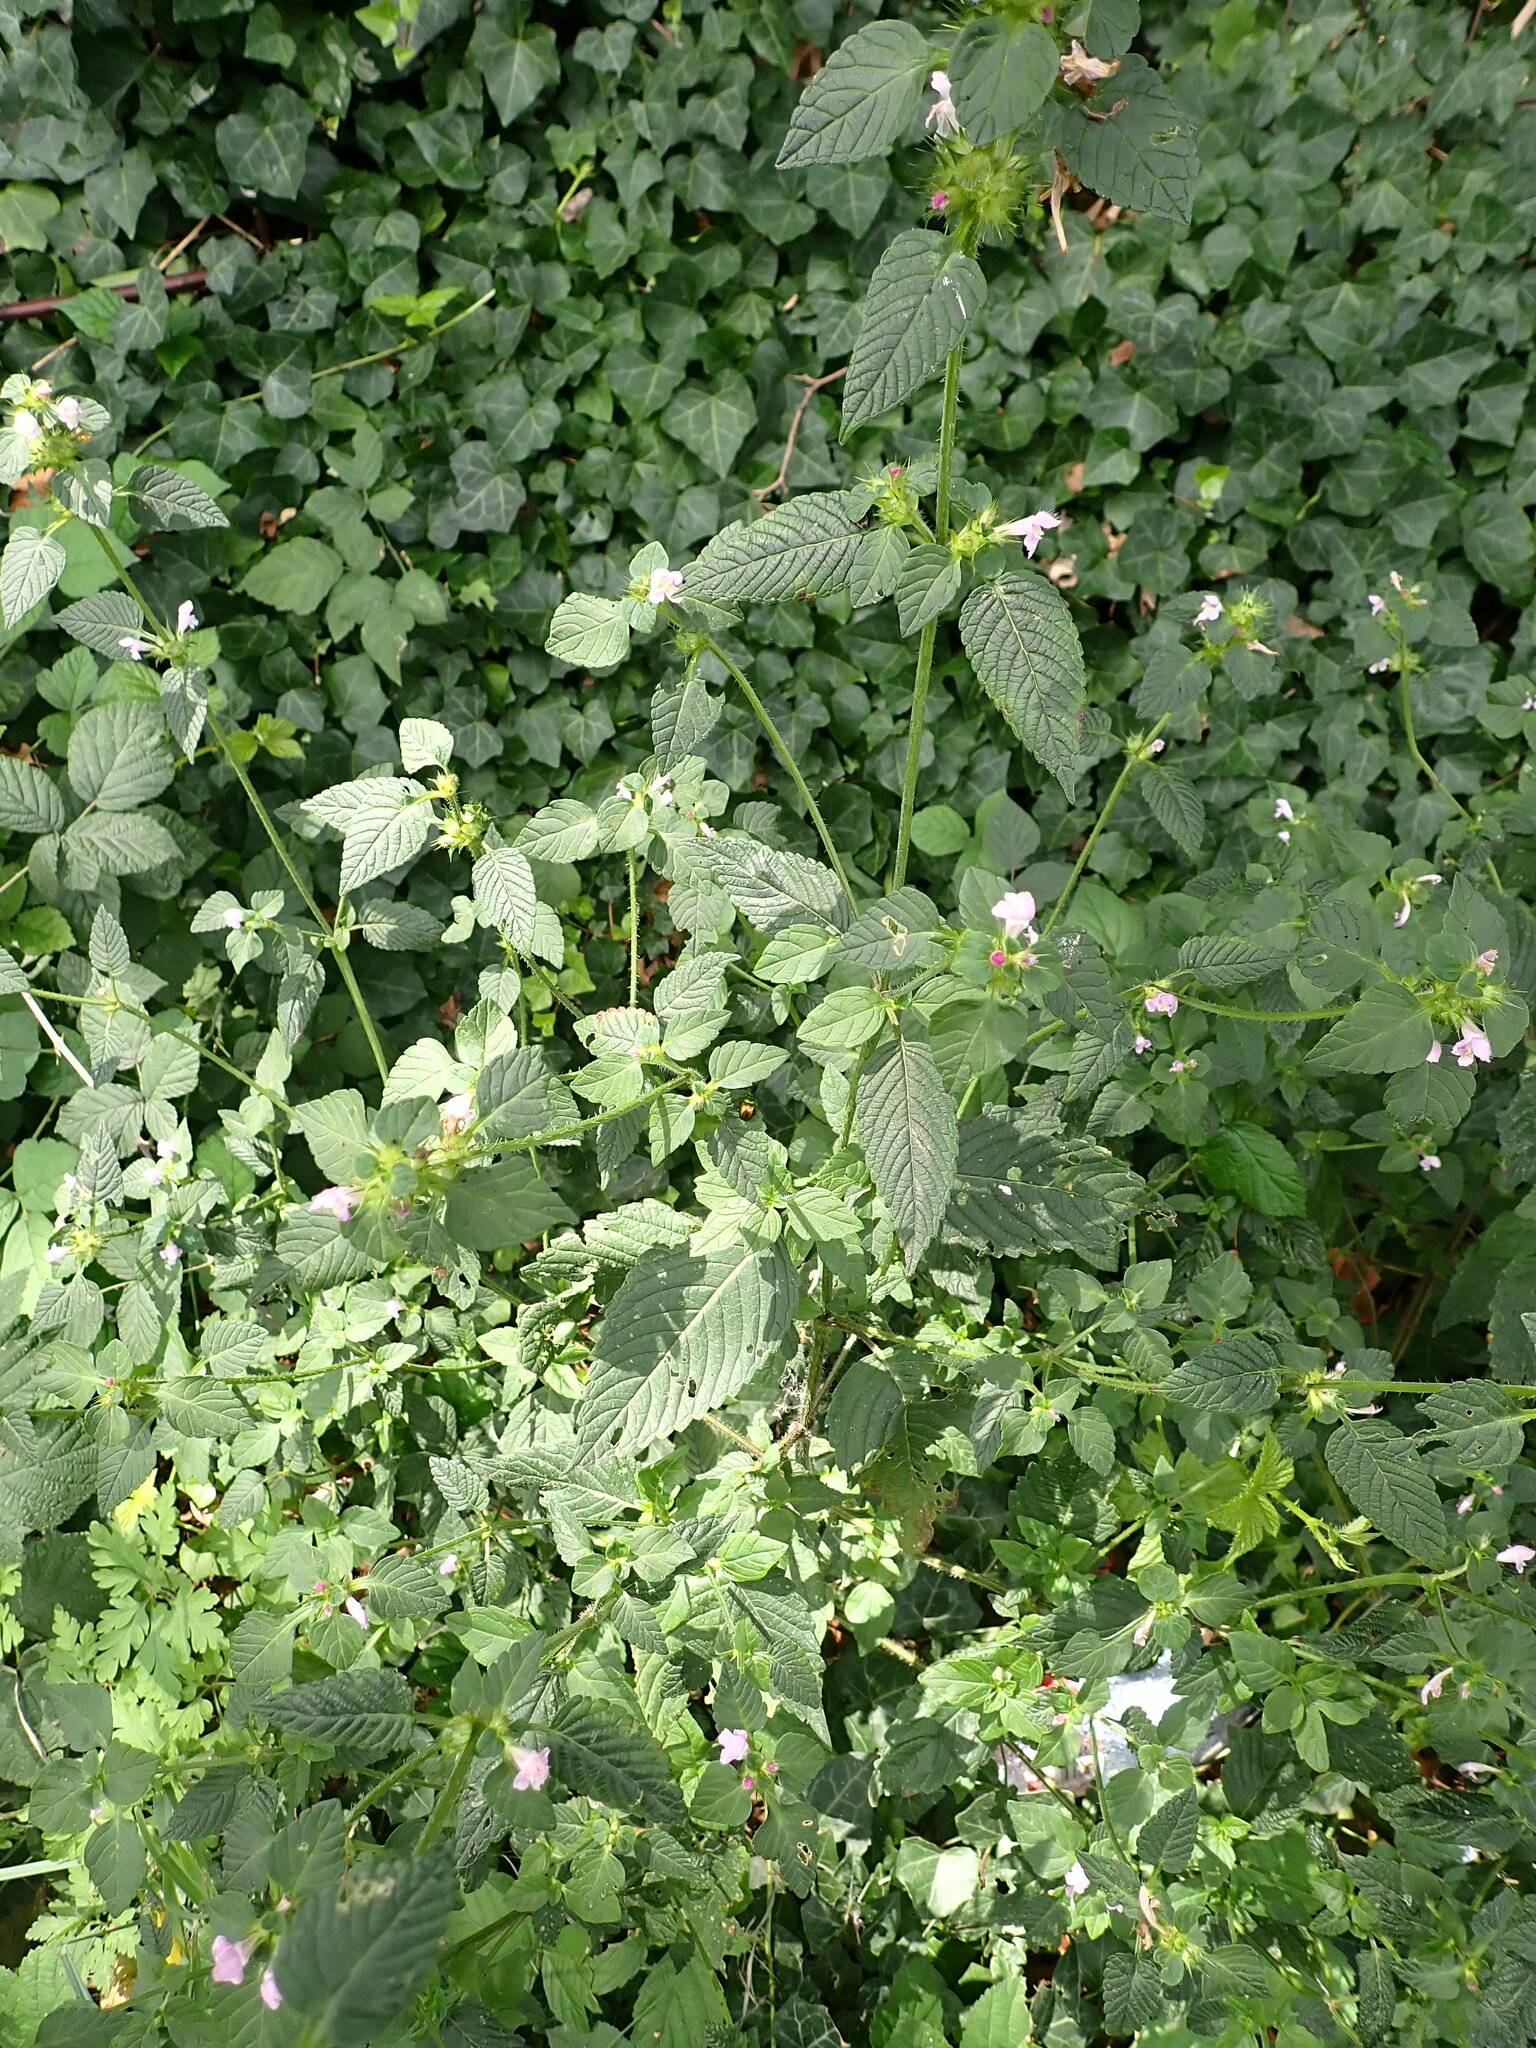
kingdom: Plantae
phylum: Tracheophyta
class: Magnoliopsida
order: Lamiales
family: Lamiaceae
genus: Galeopsis
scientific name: Galeopsis tetrahit
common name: Common hemp-nettle
